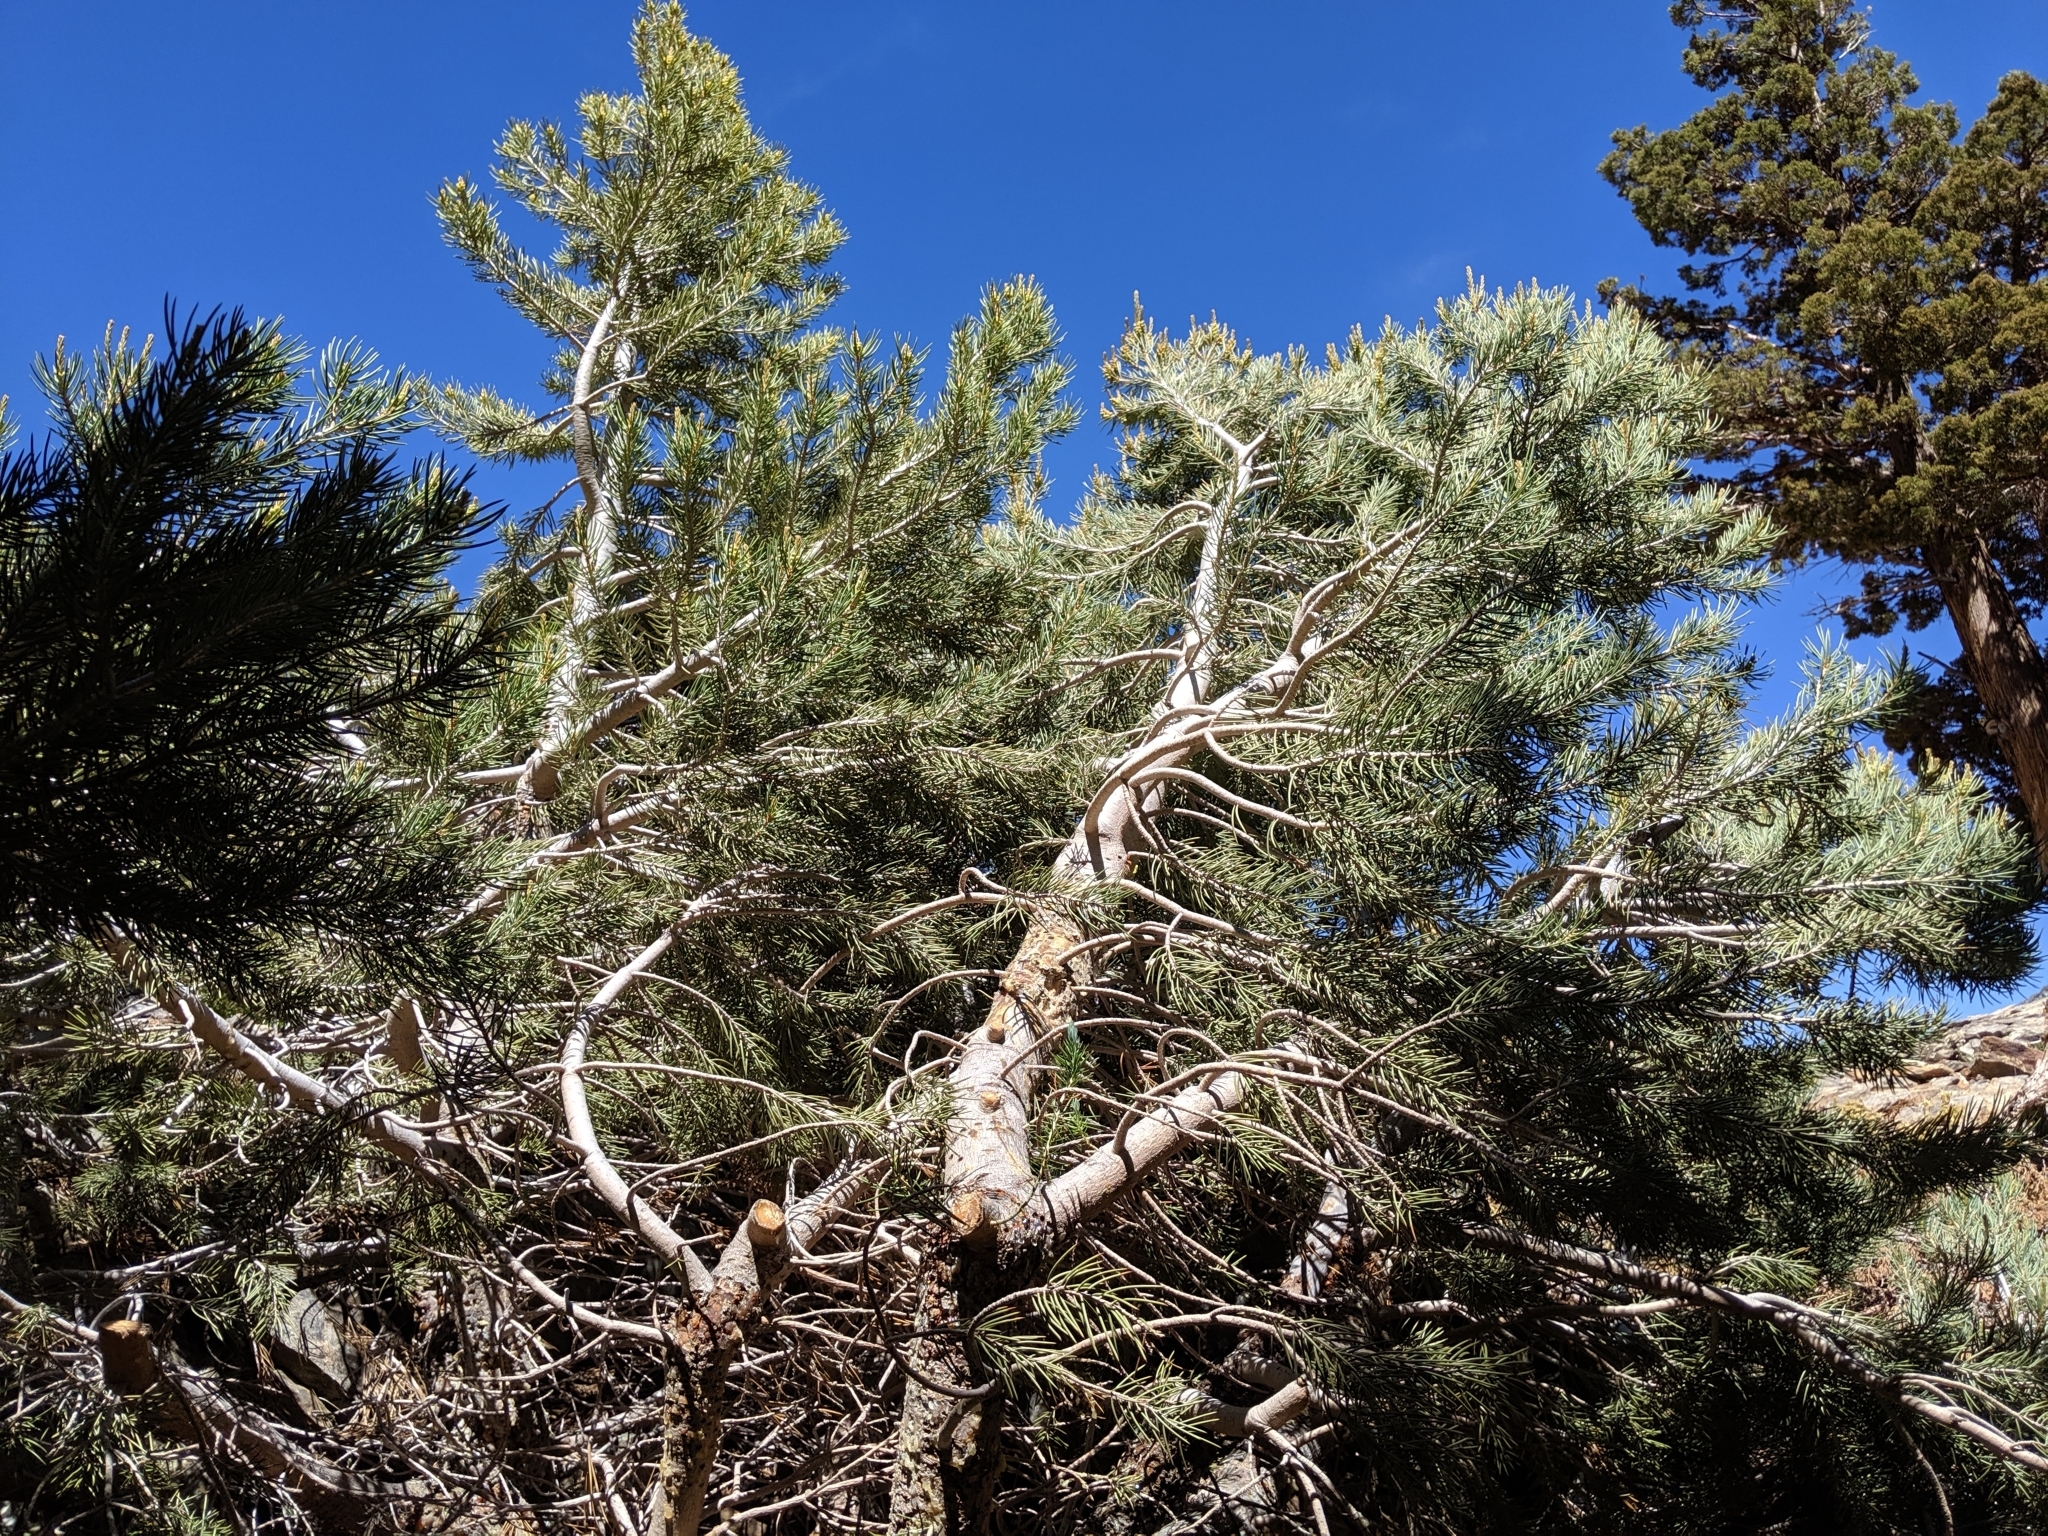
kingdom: Plantae
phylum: Tracheophyta
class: Pinopsida
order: Pinales
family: Pinaceae
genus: Pinus
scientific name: Pinus monophylla
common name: One-leaved nut pine
